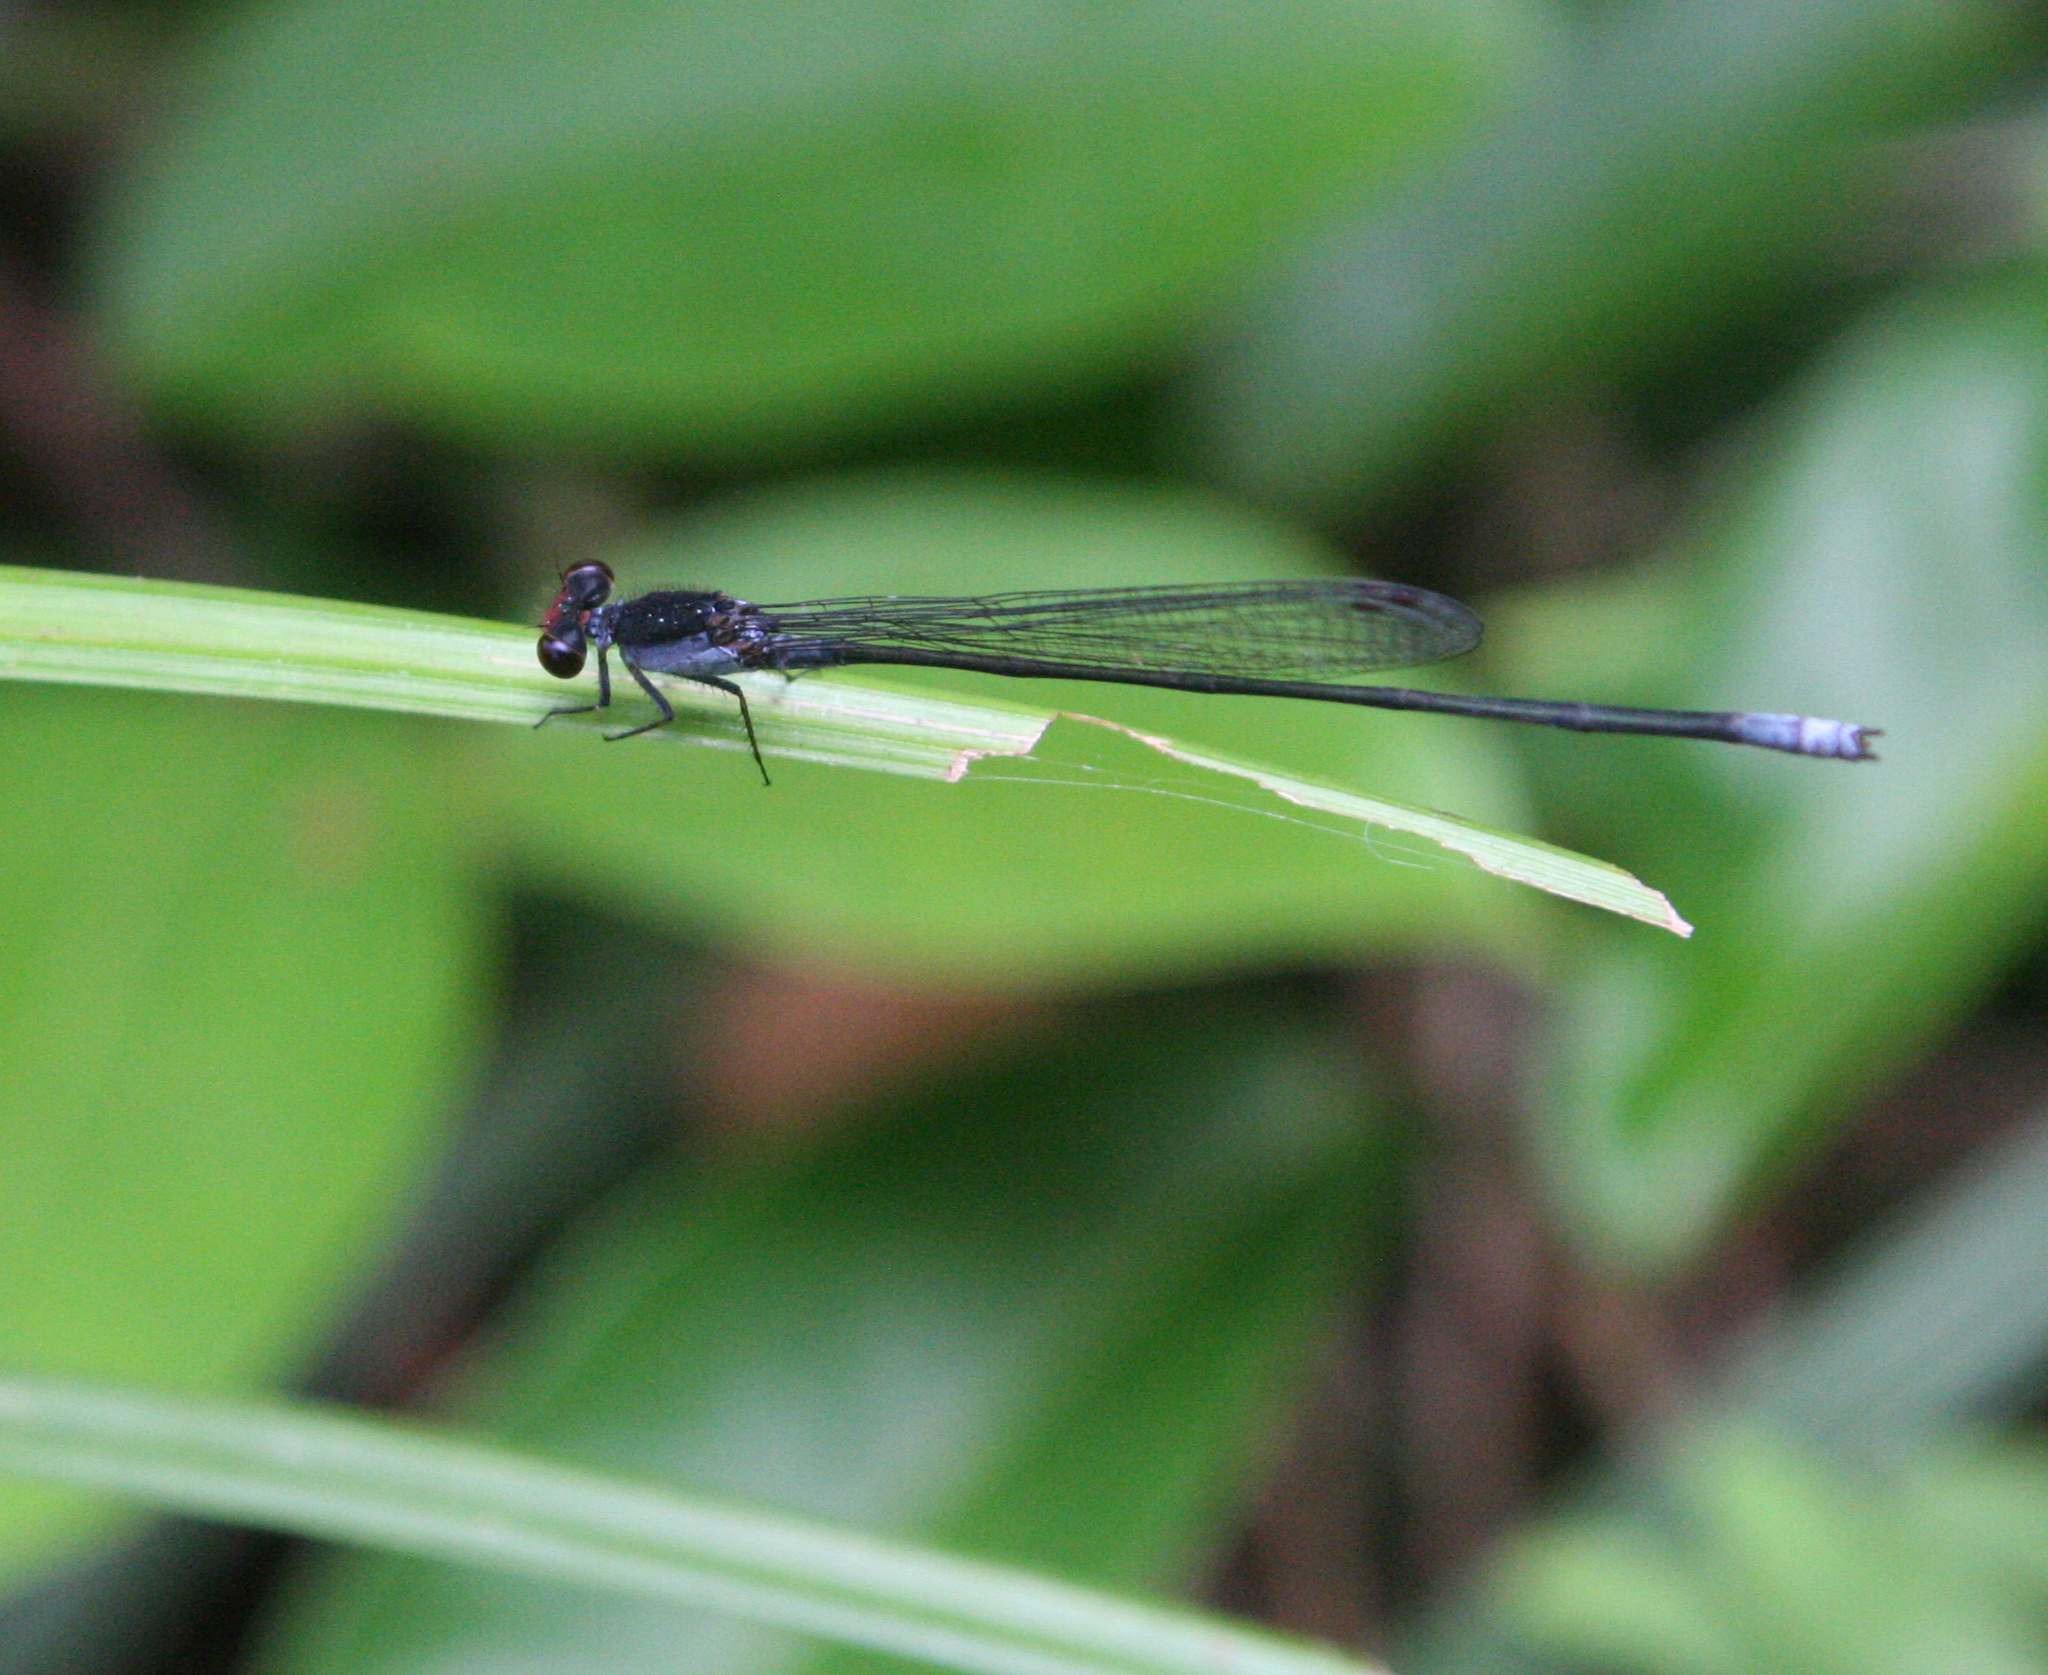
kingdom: Animalia
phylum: Arthropoda
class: Insecta
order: Odonata
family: Coenagrionidae
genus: Pseudagrion
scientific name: Pseudagrion pruinosum
